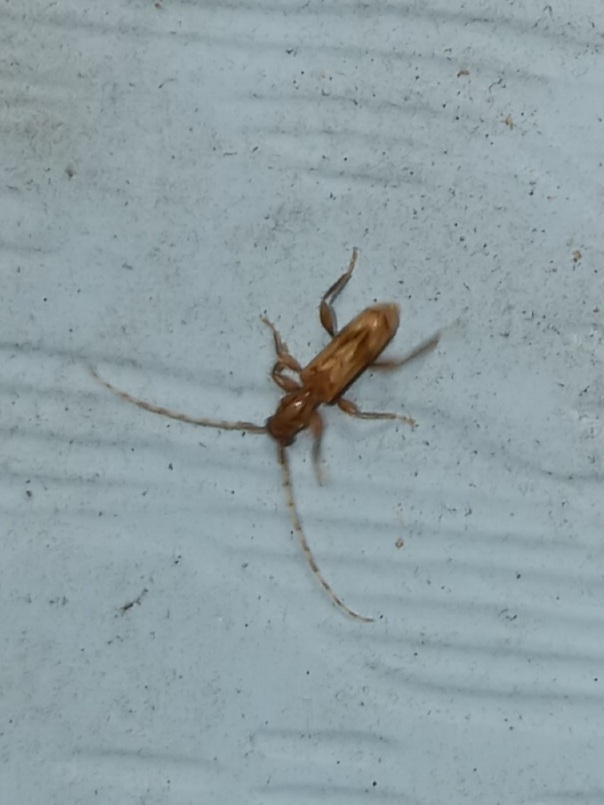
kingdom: Animalia
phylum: Arthropoda
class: Insecta
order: Coleoptera
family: Cerambycidae
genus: Obrium
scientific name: Obrium maculatum
